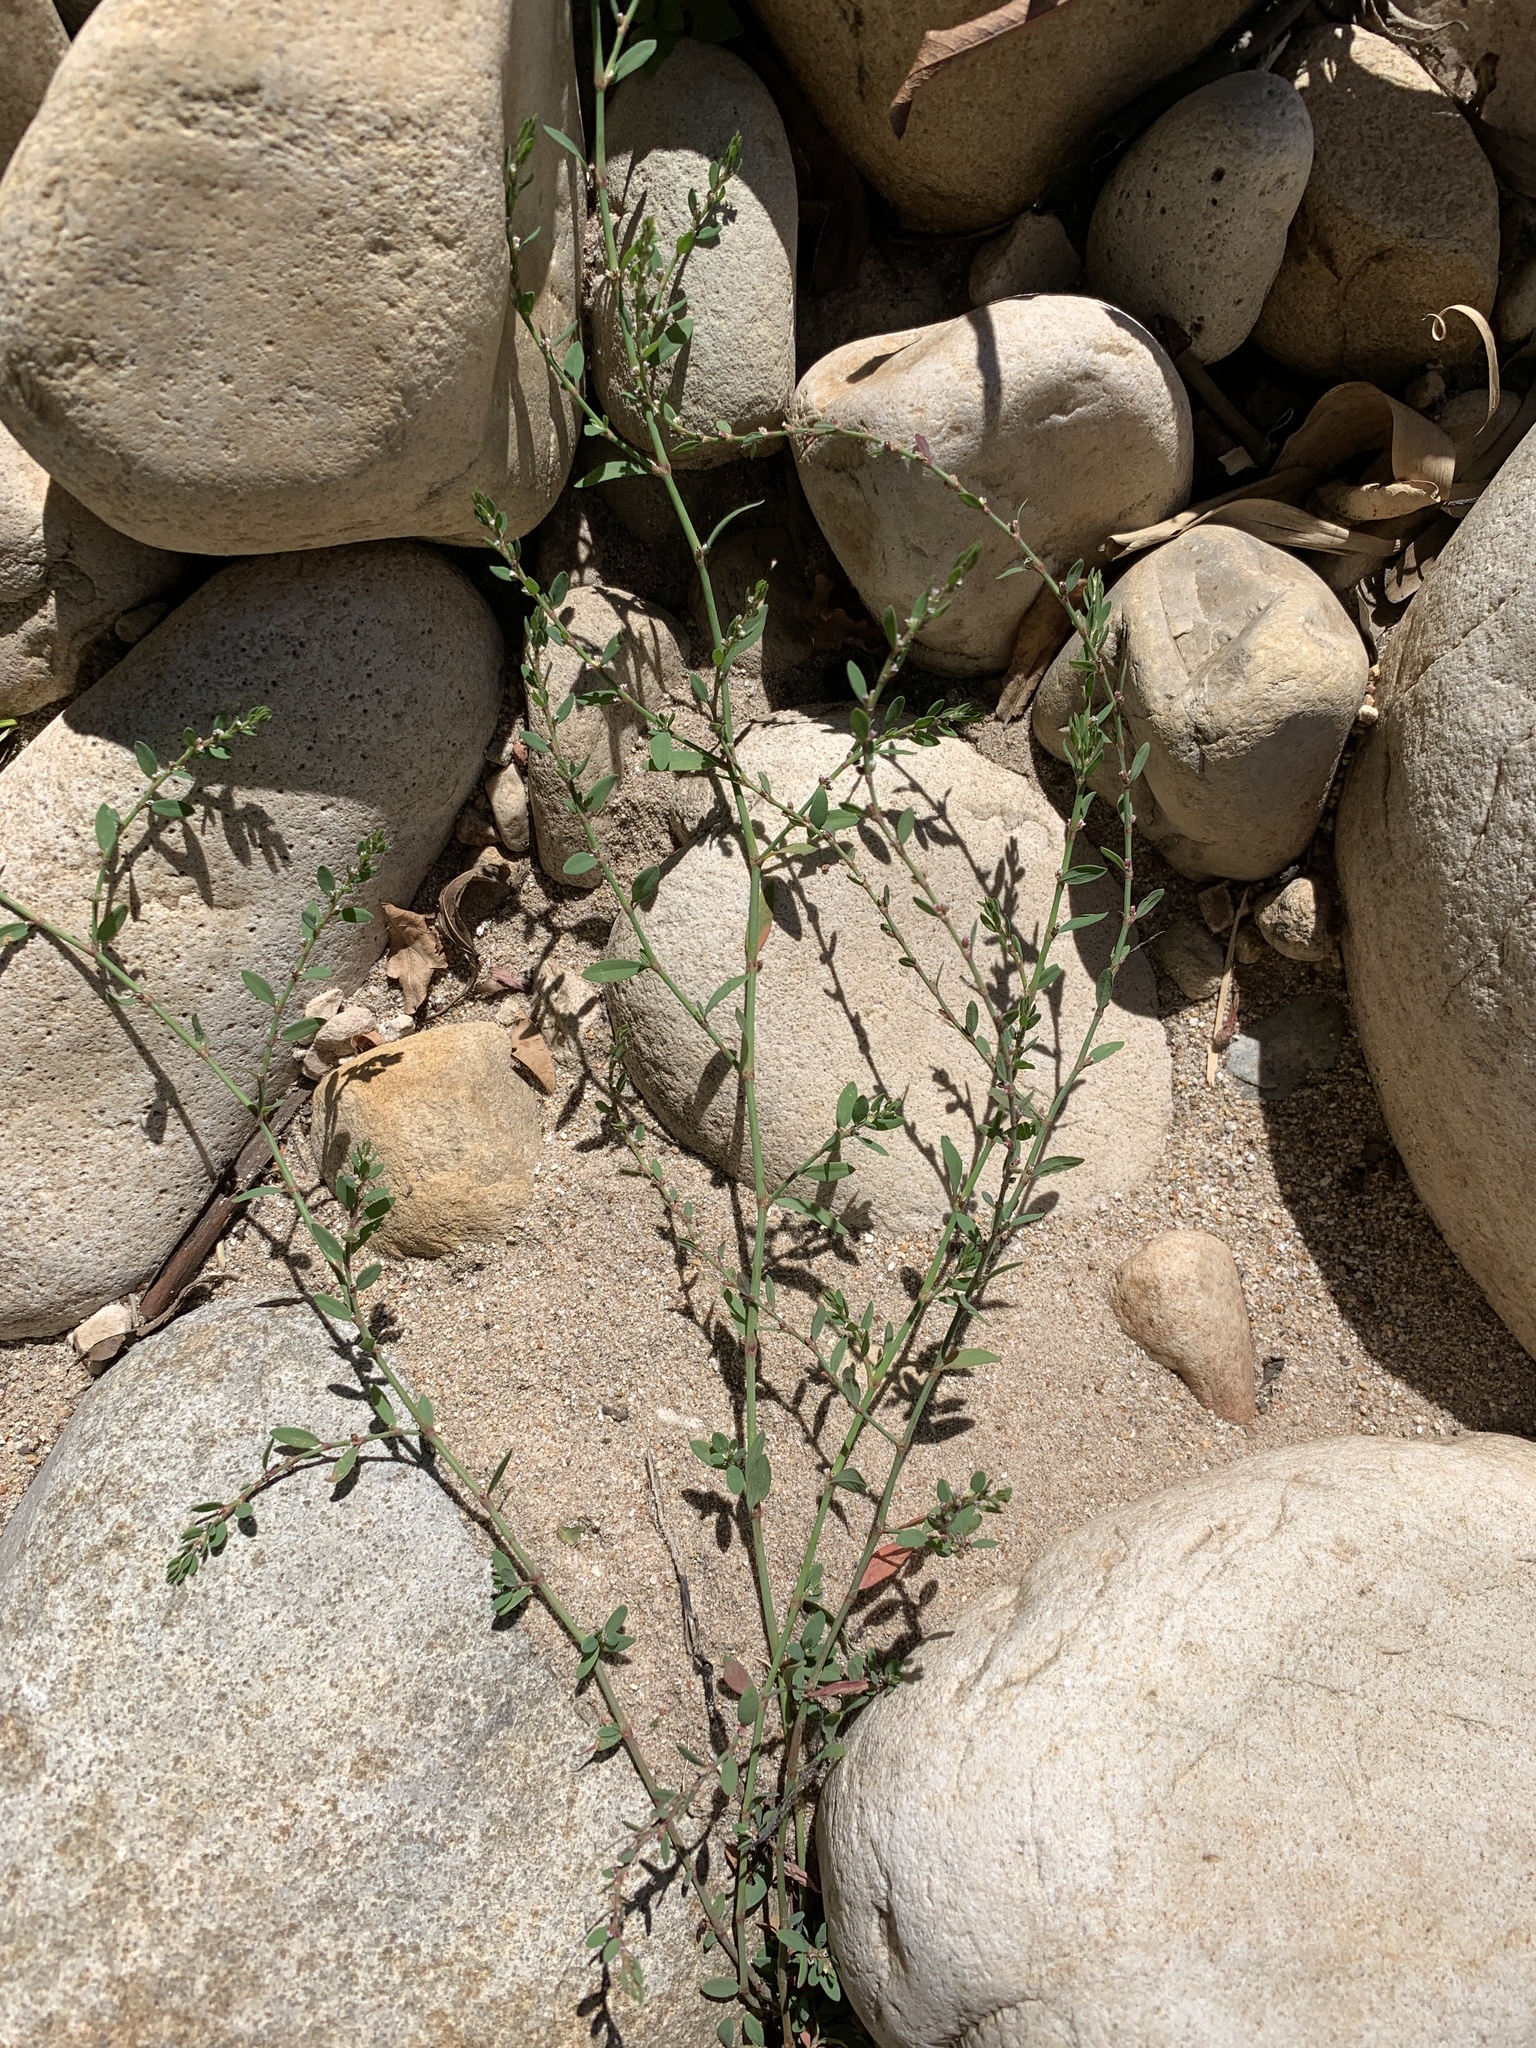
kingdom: Plantae
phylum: Tracheophyta
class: Magnoliopsida
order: Caryophyllales
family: Polygonaceae
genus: Polygonum
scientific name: Polygonum aviculare
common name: Prostrate knotweed
